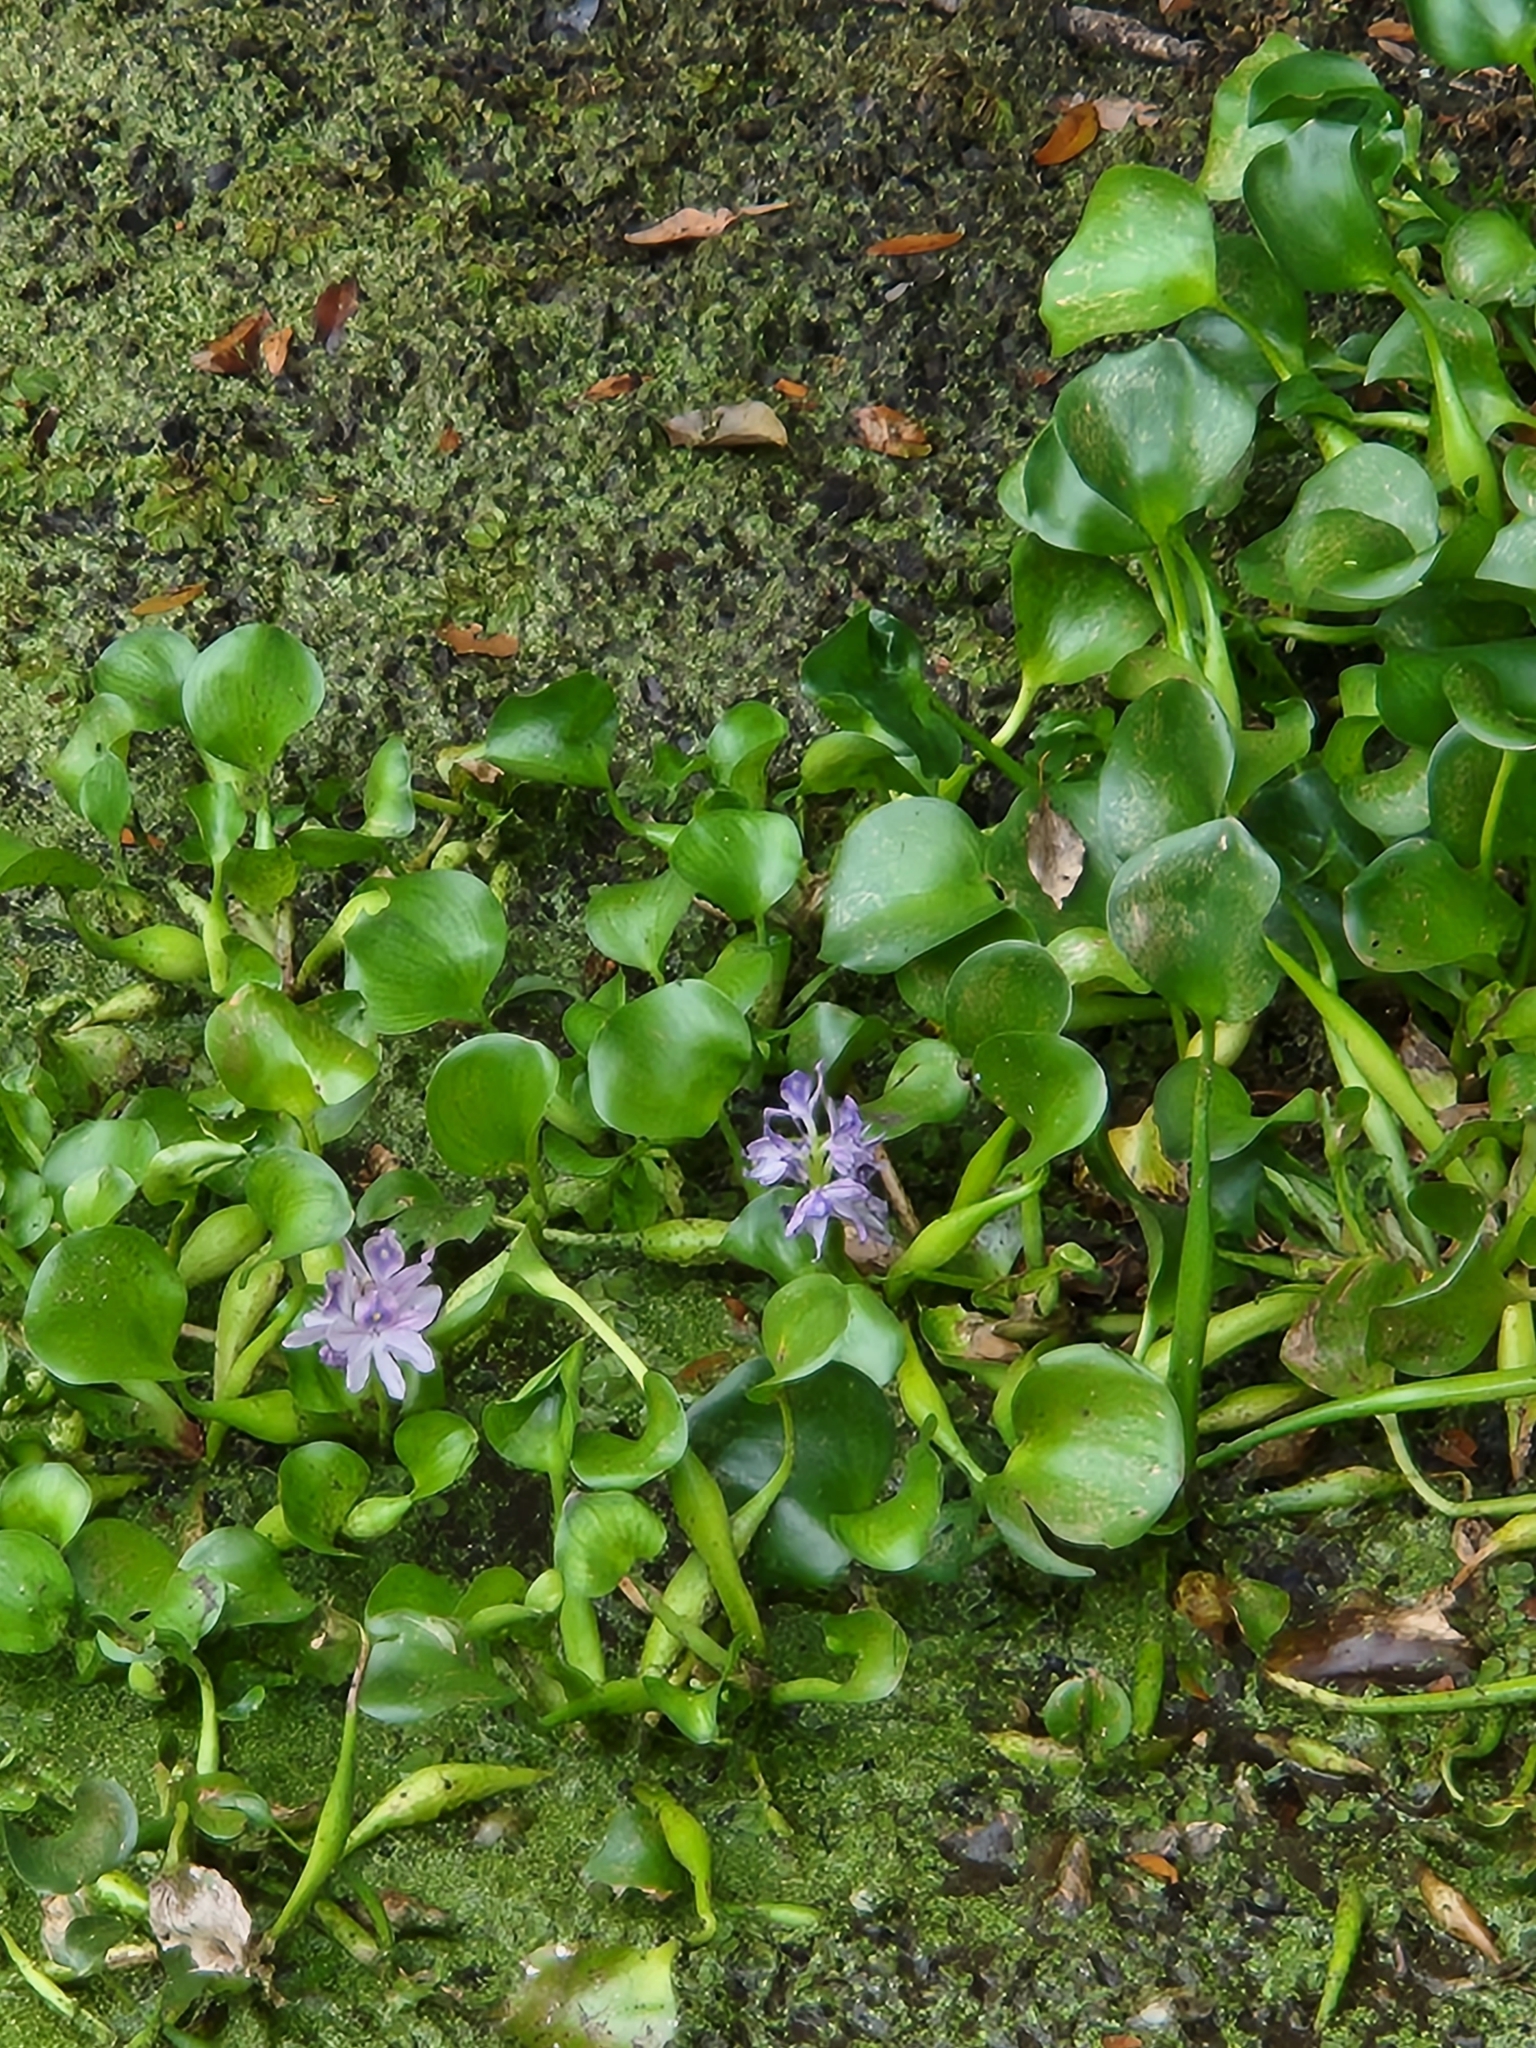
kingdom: Plantae
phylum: Tracheophyta
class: Liliopsida
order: Commelinales
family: Pontederiaceae
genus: Pontederia
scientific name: Pontederia crassipes
